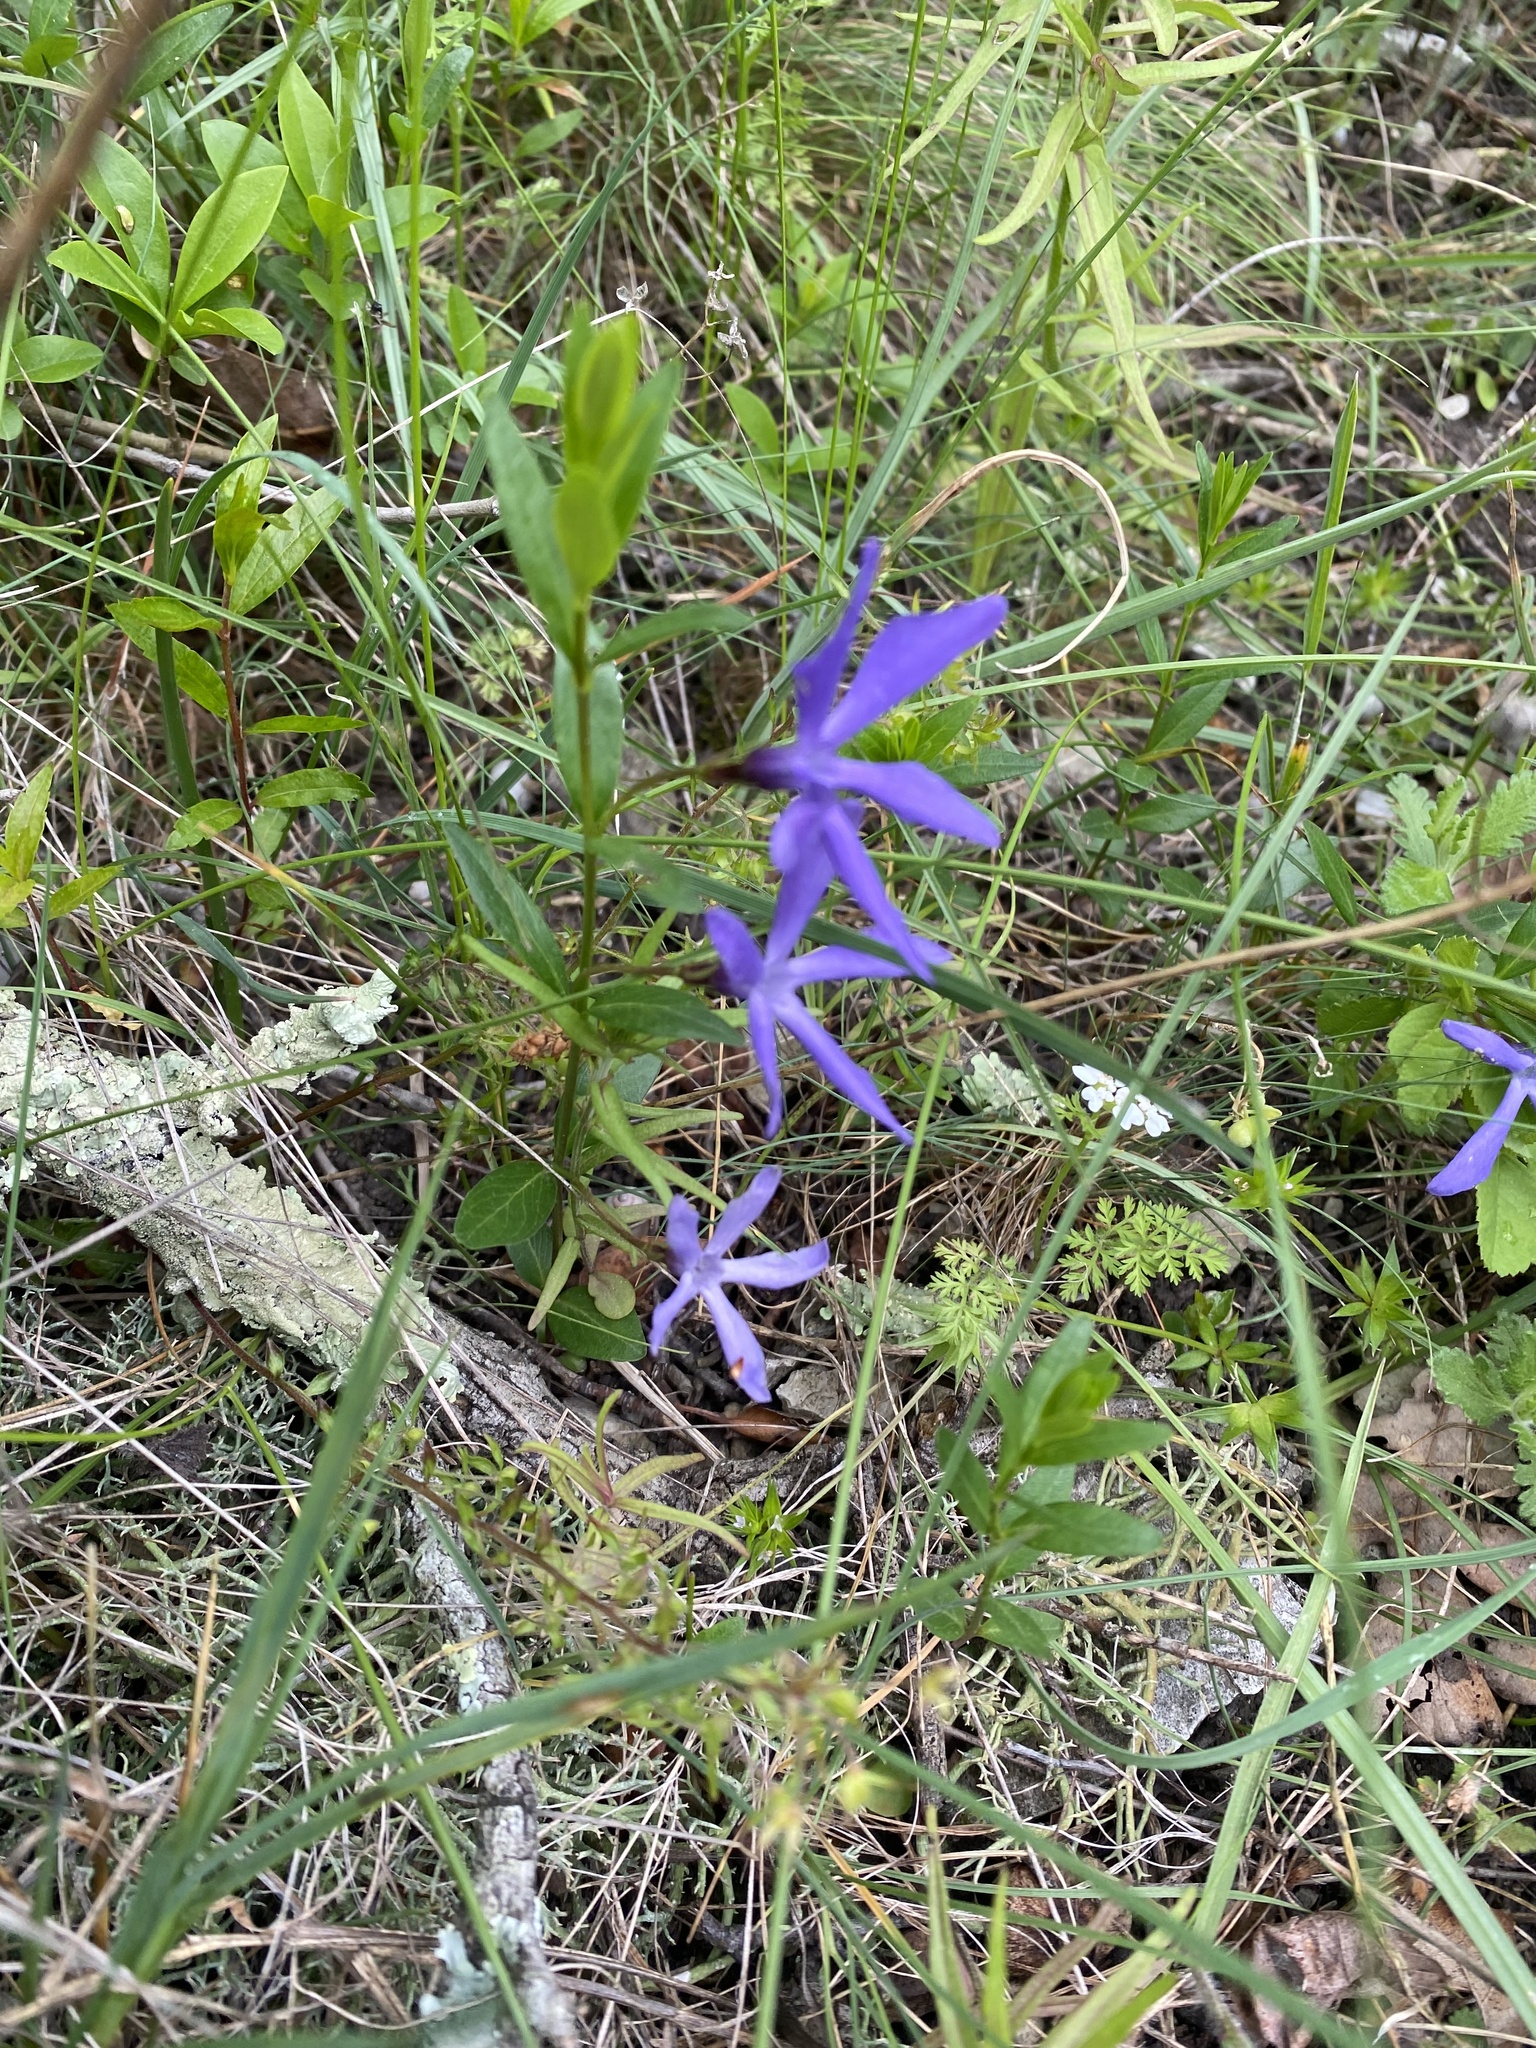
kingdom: Plantae
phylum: Tracheophyta
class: Magnoliopsida
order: Gentianales
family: Apocynaceae
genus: Vinca
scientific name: Vinca herbacea
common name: Herbaceous periwinkle
